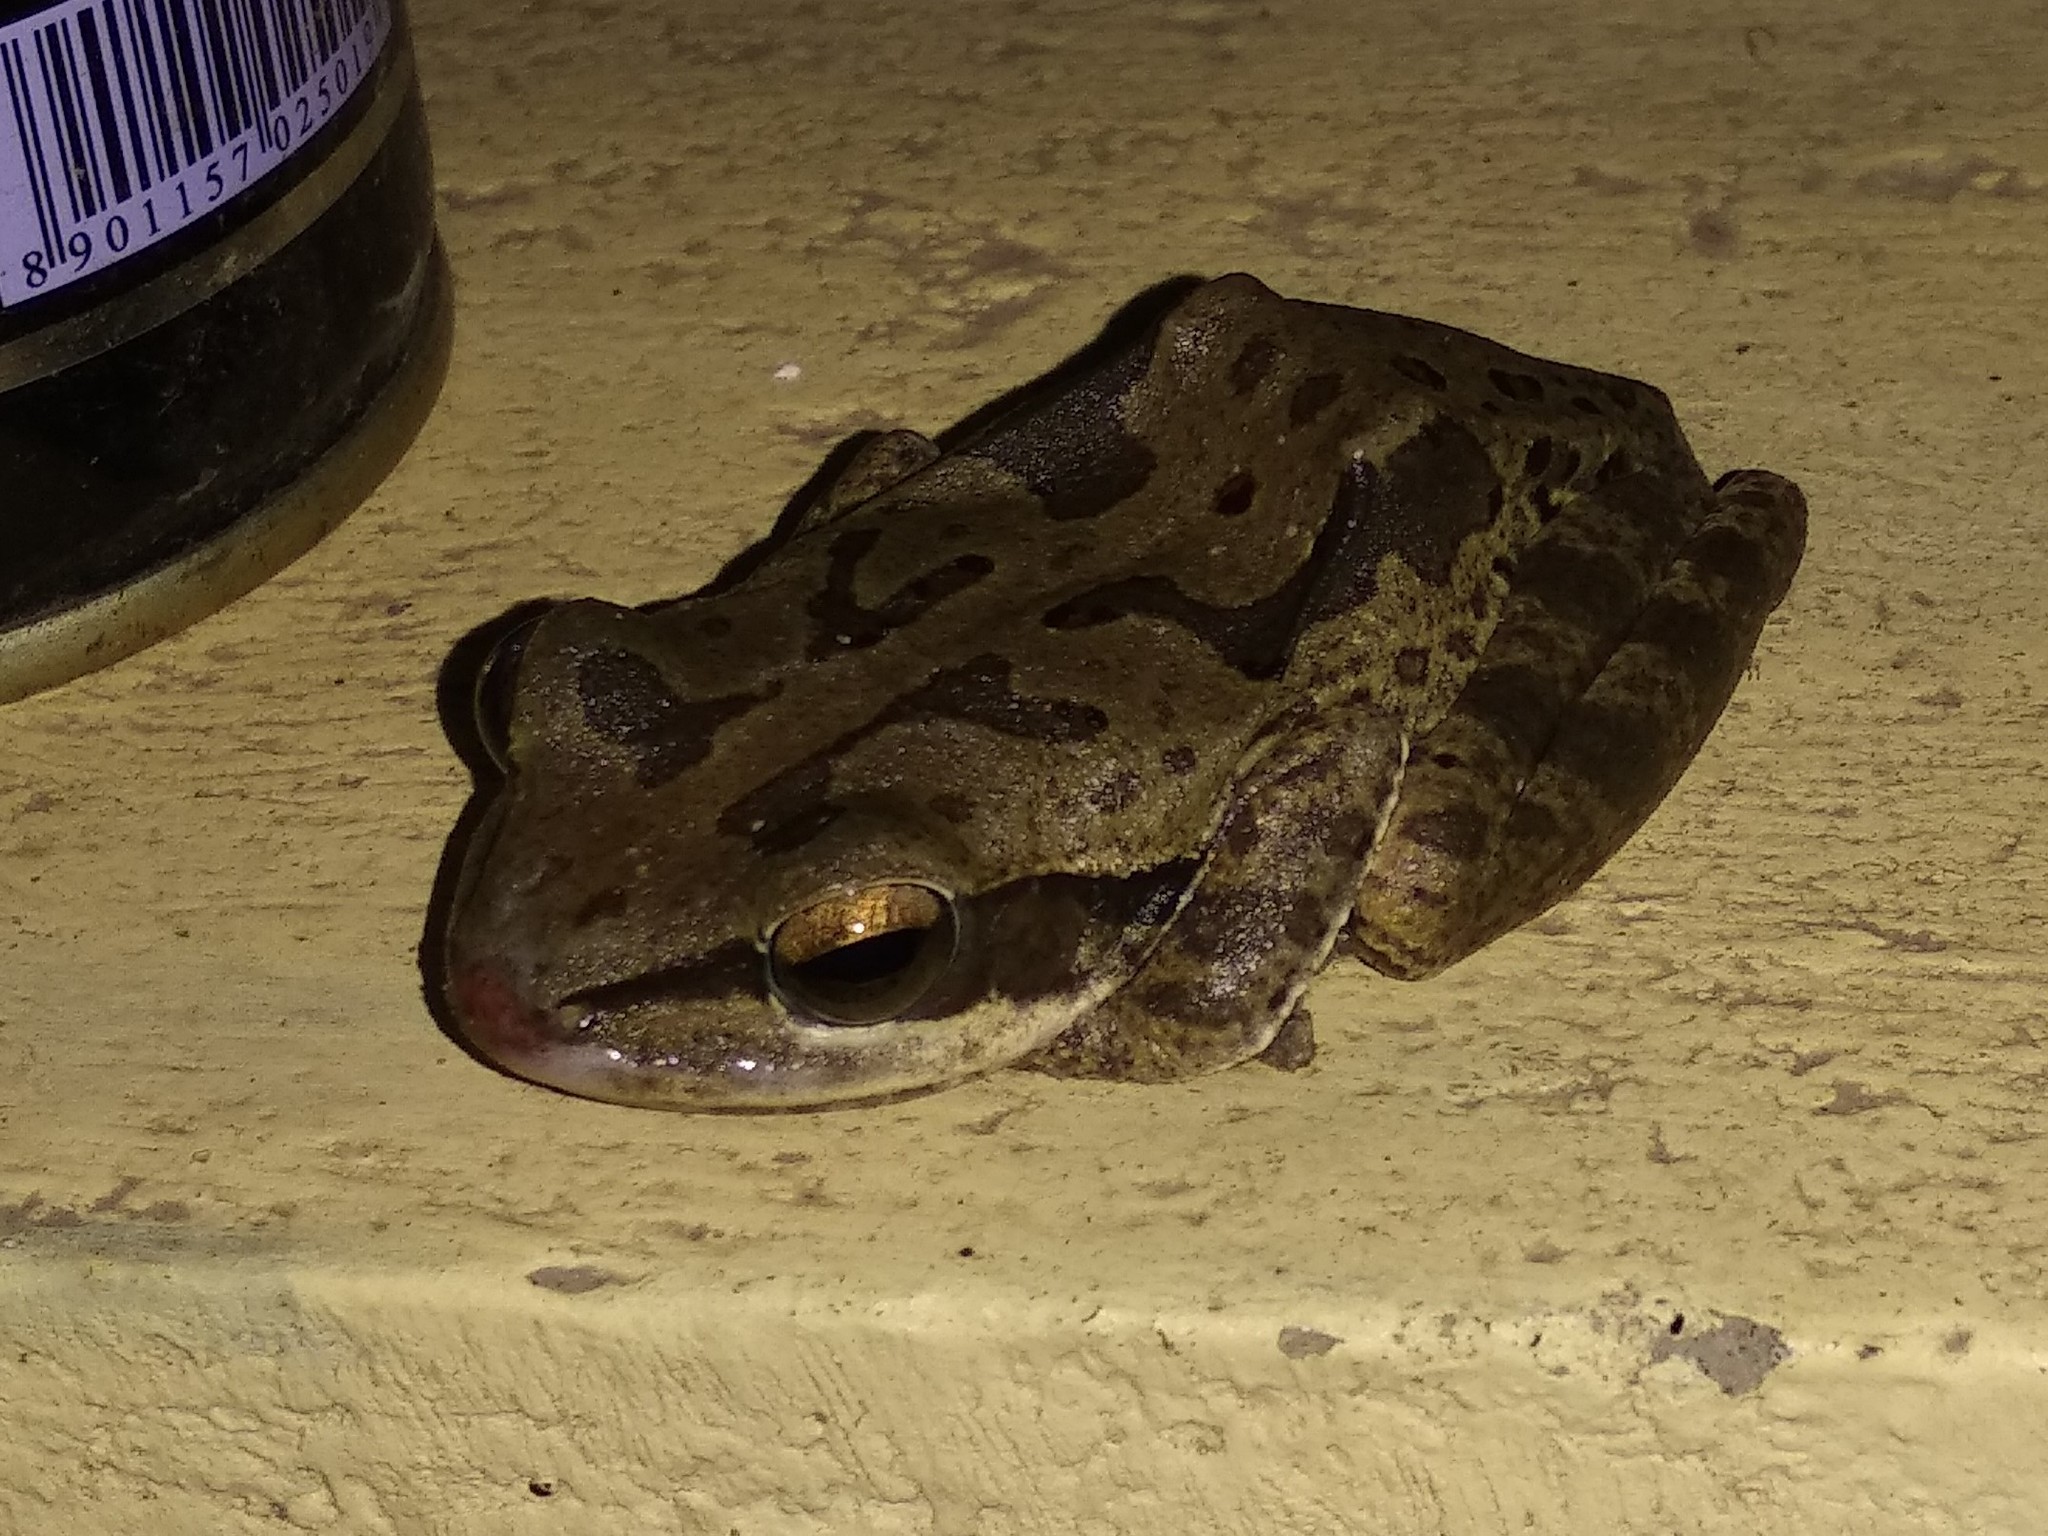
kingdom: Animalia
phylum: Chordata
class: Amphibia
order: Anura
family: Rhacophoridae
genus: Polypedates
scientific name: Polypedates maculatus
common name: Himalayan tree frog
